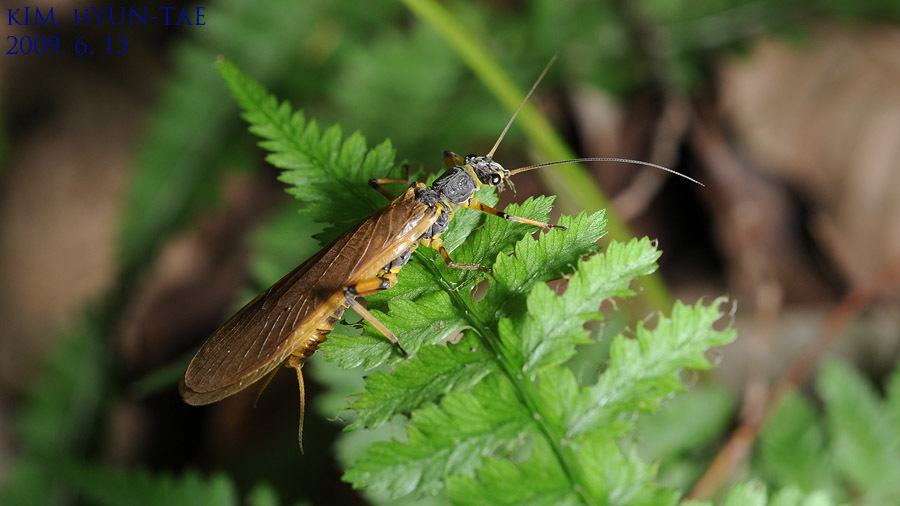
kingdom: Animalia
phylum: Arthropoda
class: Insecta
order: Plecoptera
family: Perlidae
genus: Oyamia
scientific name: Oyamia nigribasis
